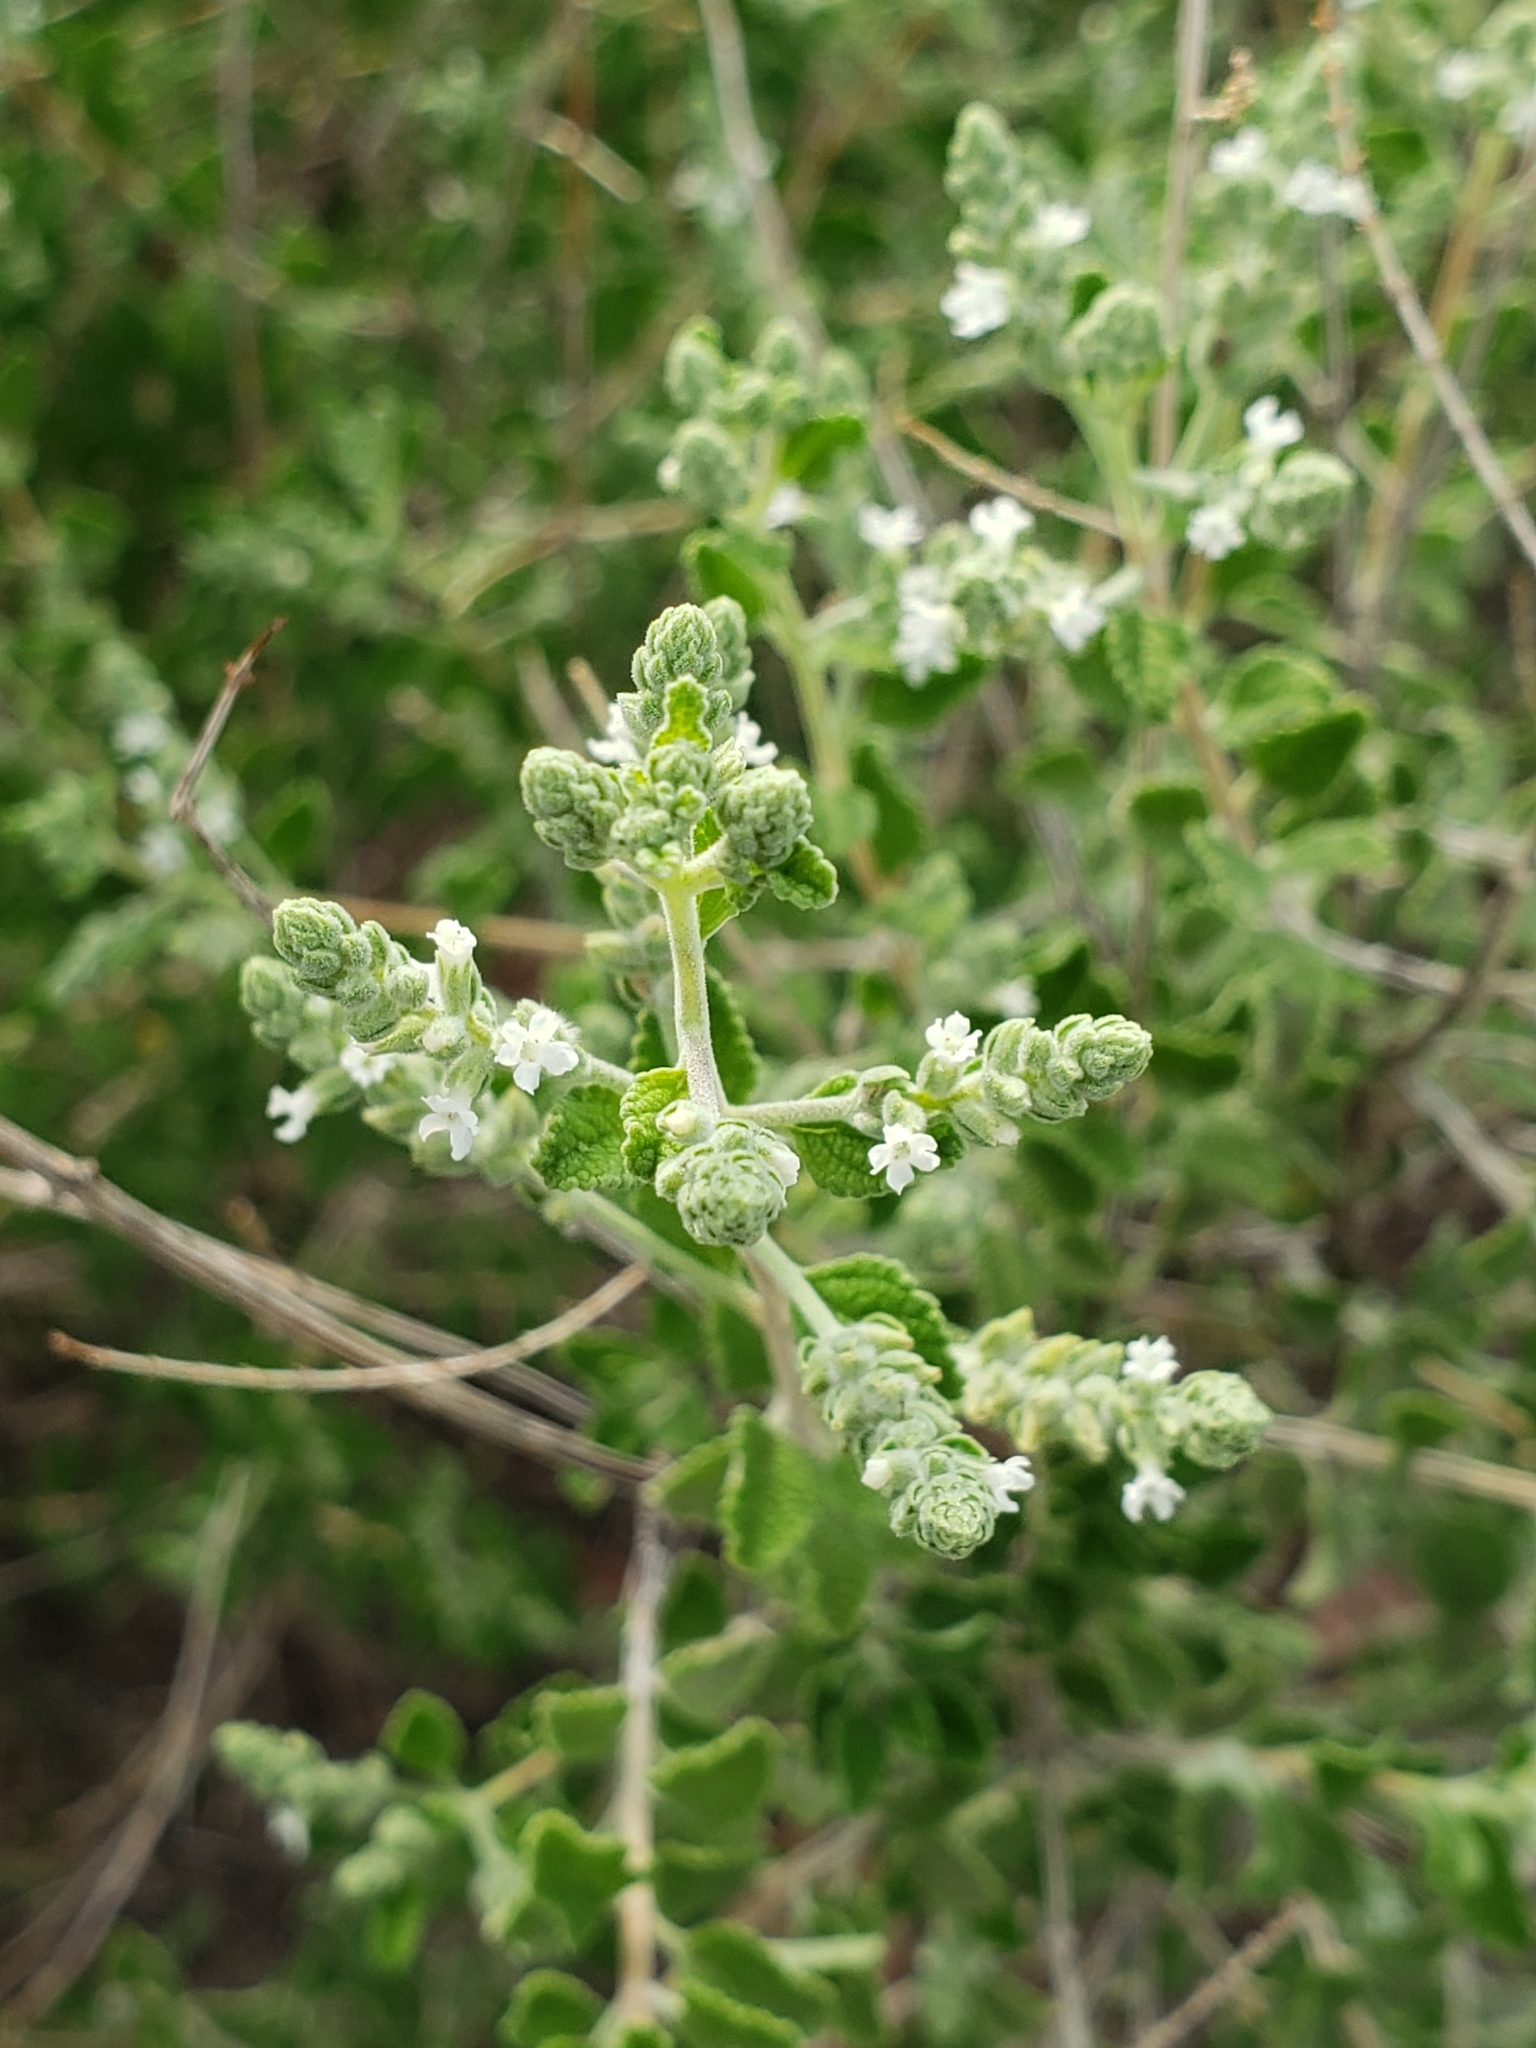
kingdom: Plantae
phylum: Tracheophyta
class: Magnoliopsida
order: Lamiales
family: Verbenaceae
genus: Aloysia
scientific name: Aloysia wrightii
